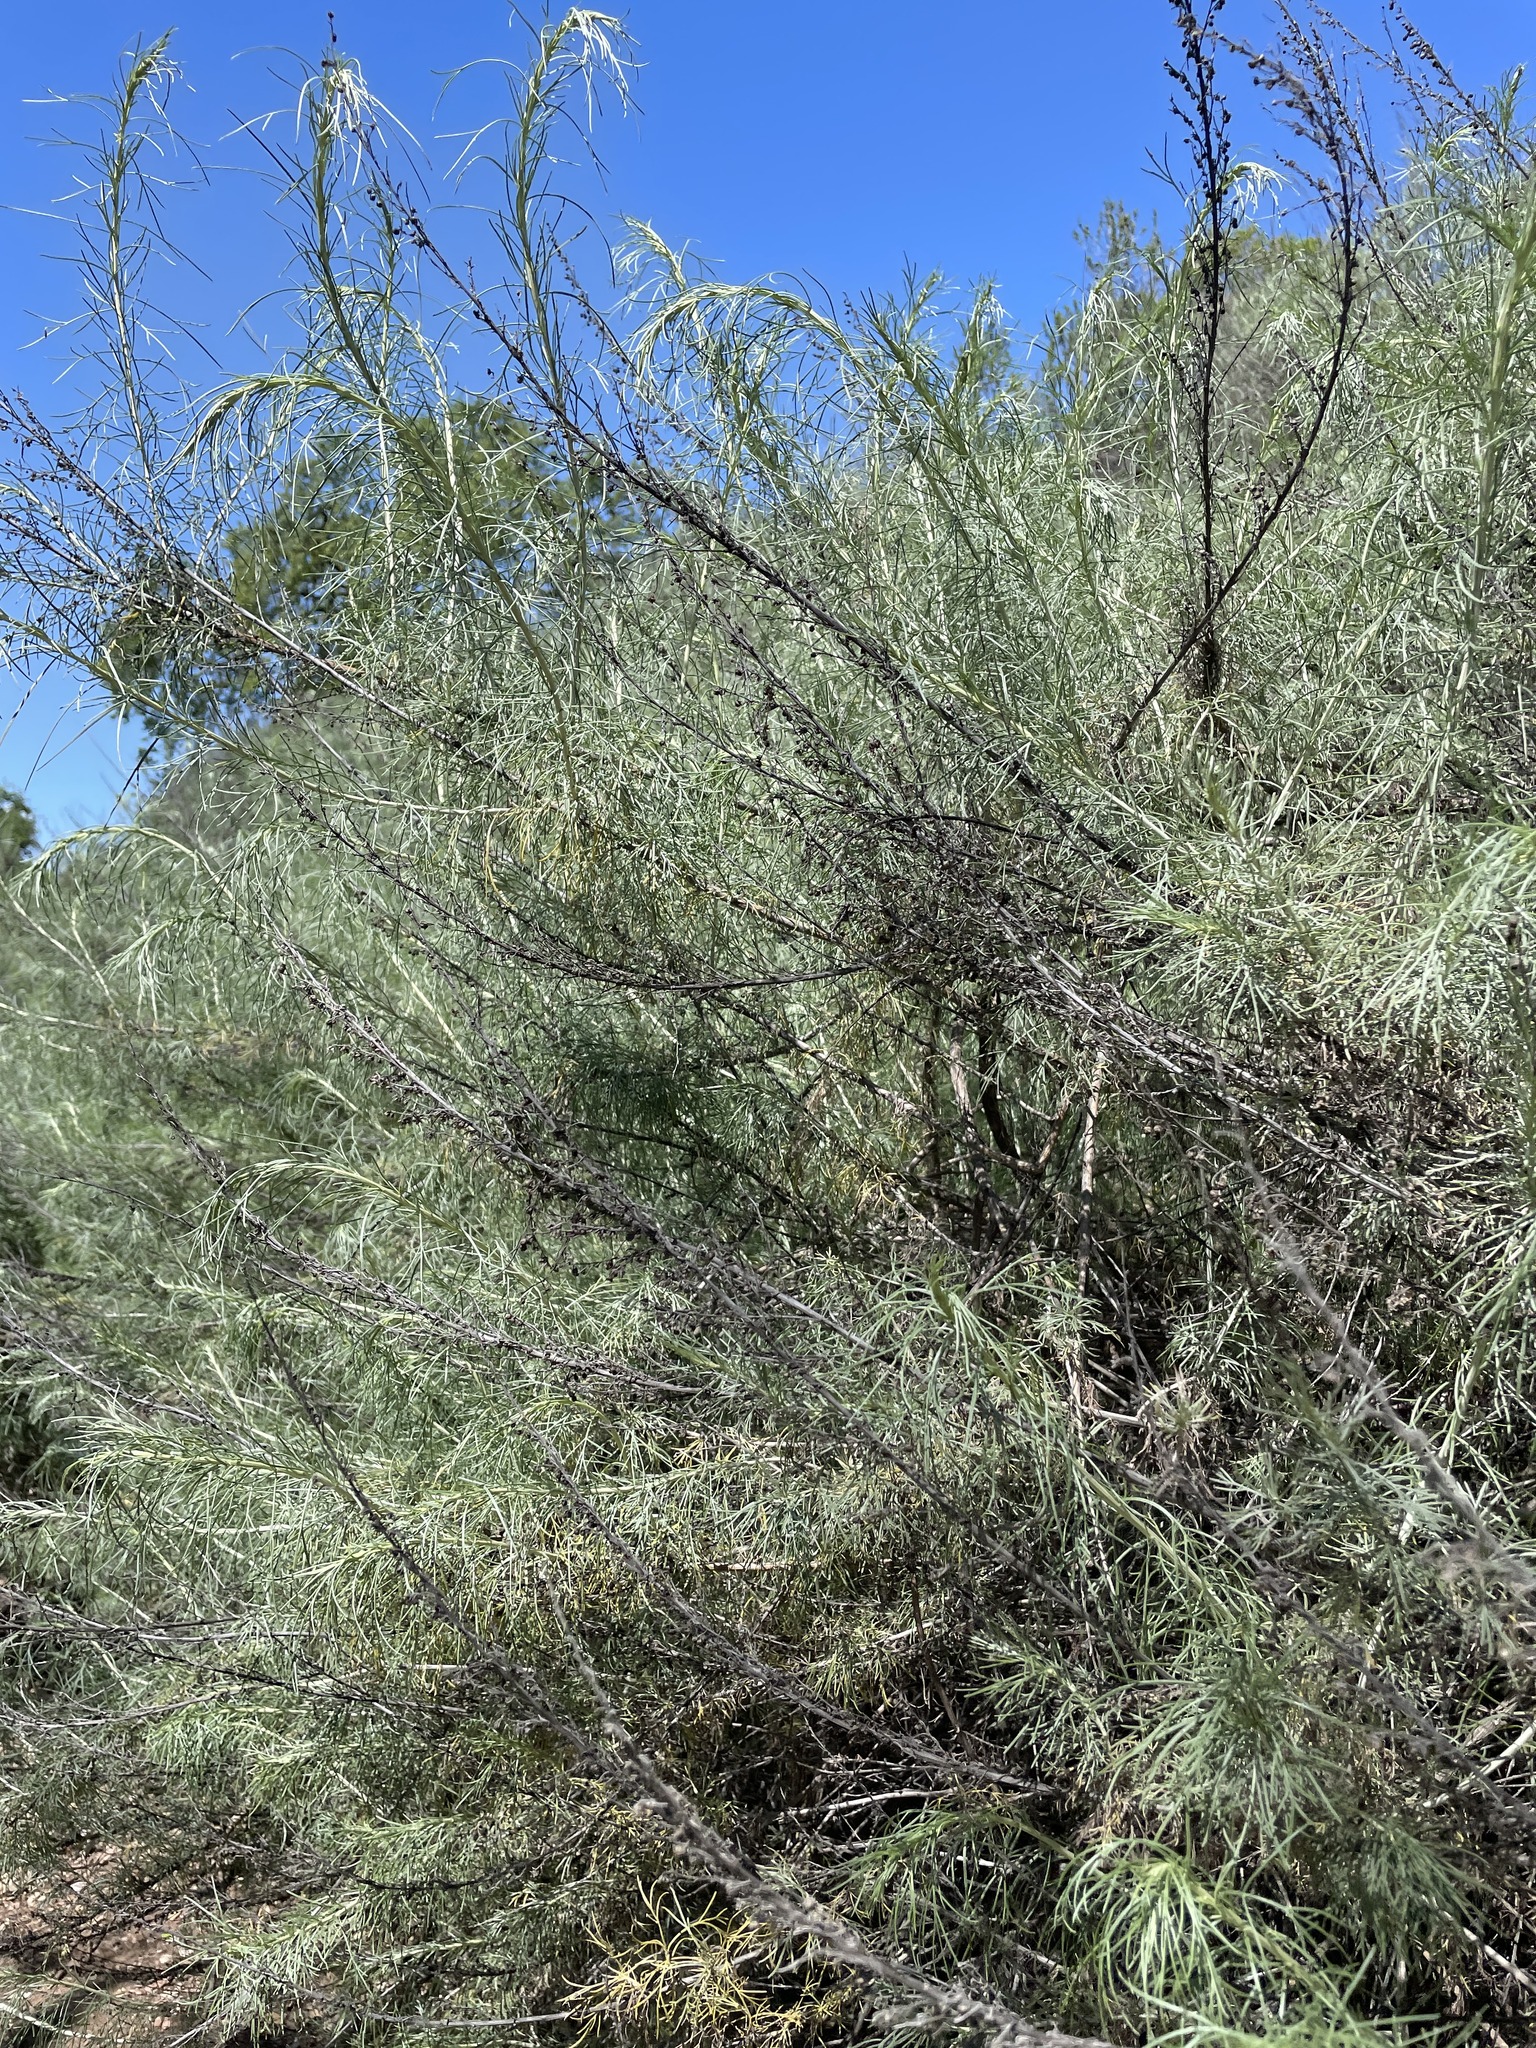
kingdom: Plantae
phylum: Tracheophyta
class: Magnoliopsida
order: Asterales
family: Asteraceae
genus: Artemisia
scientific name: Artemisia californica
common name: California sagebrush
